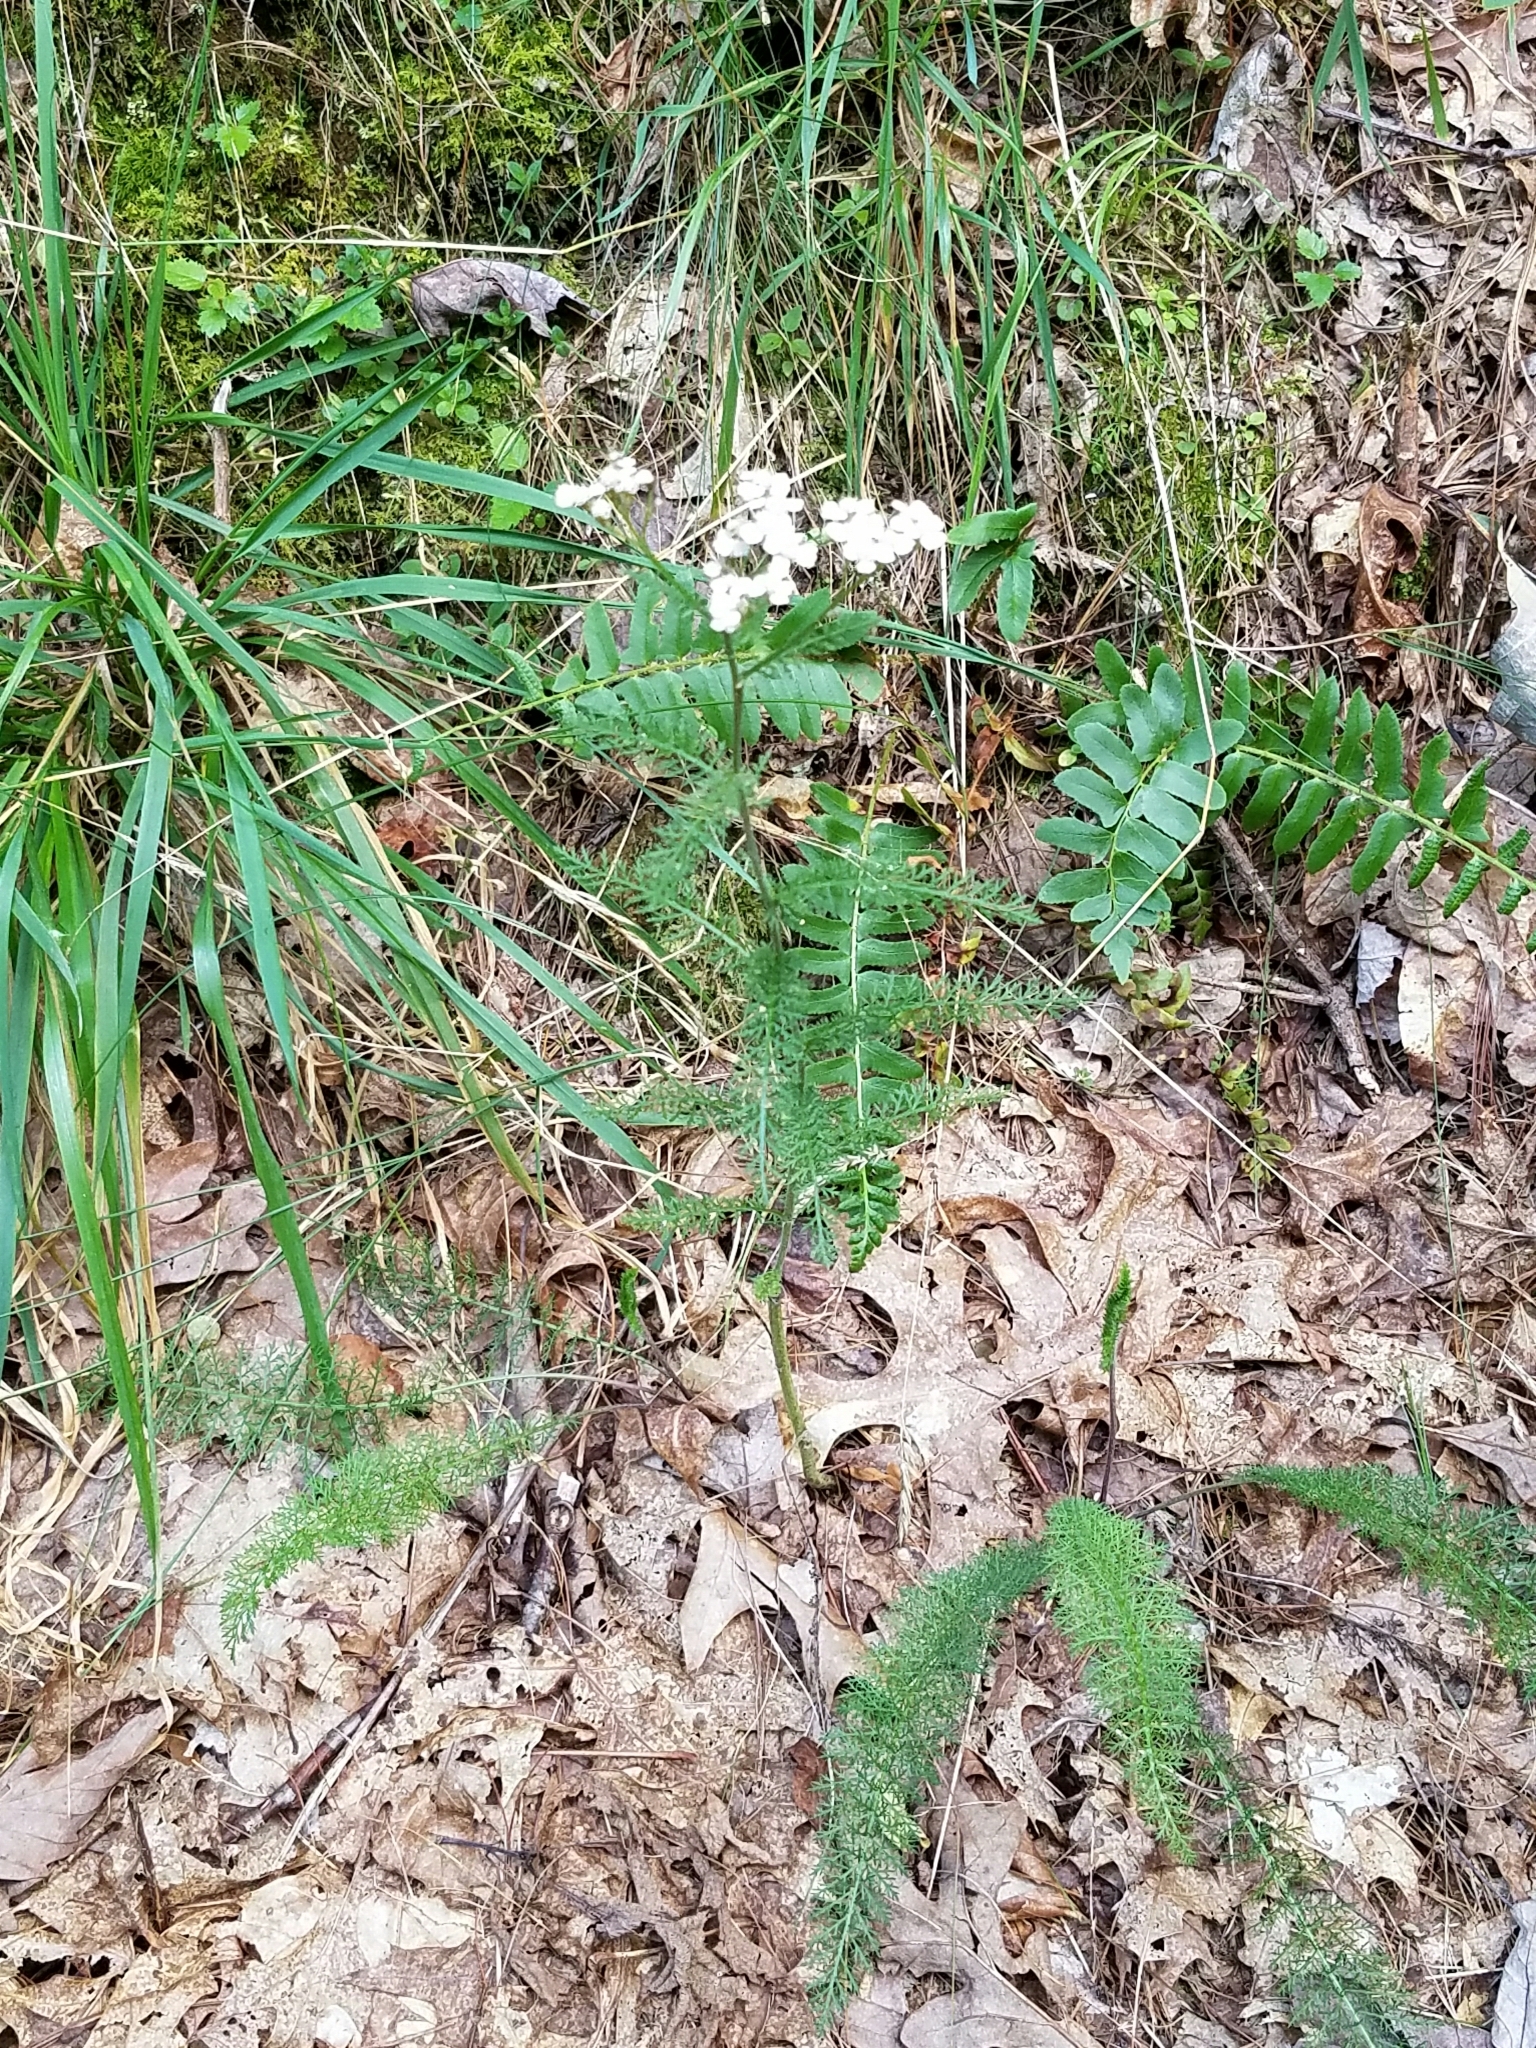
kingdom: Plantae
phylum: Tracheophyta
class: Magnoliopsida
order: Asterales
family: Asteraceae
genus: Achillea
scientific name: Achillea millefolium
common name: Yarrow
